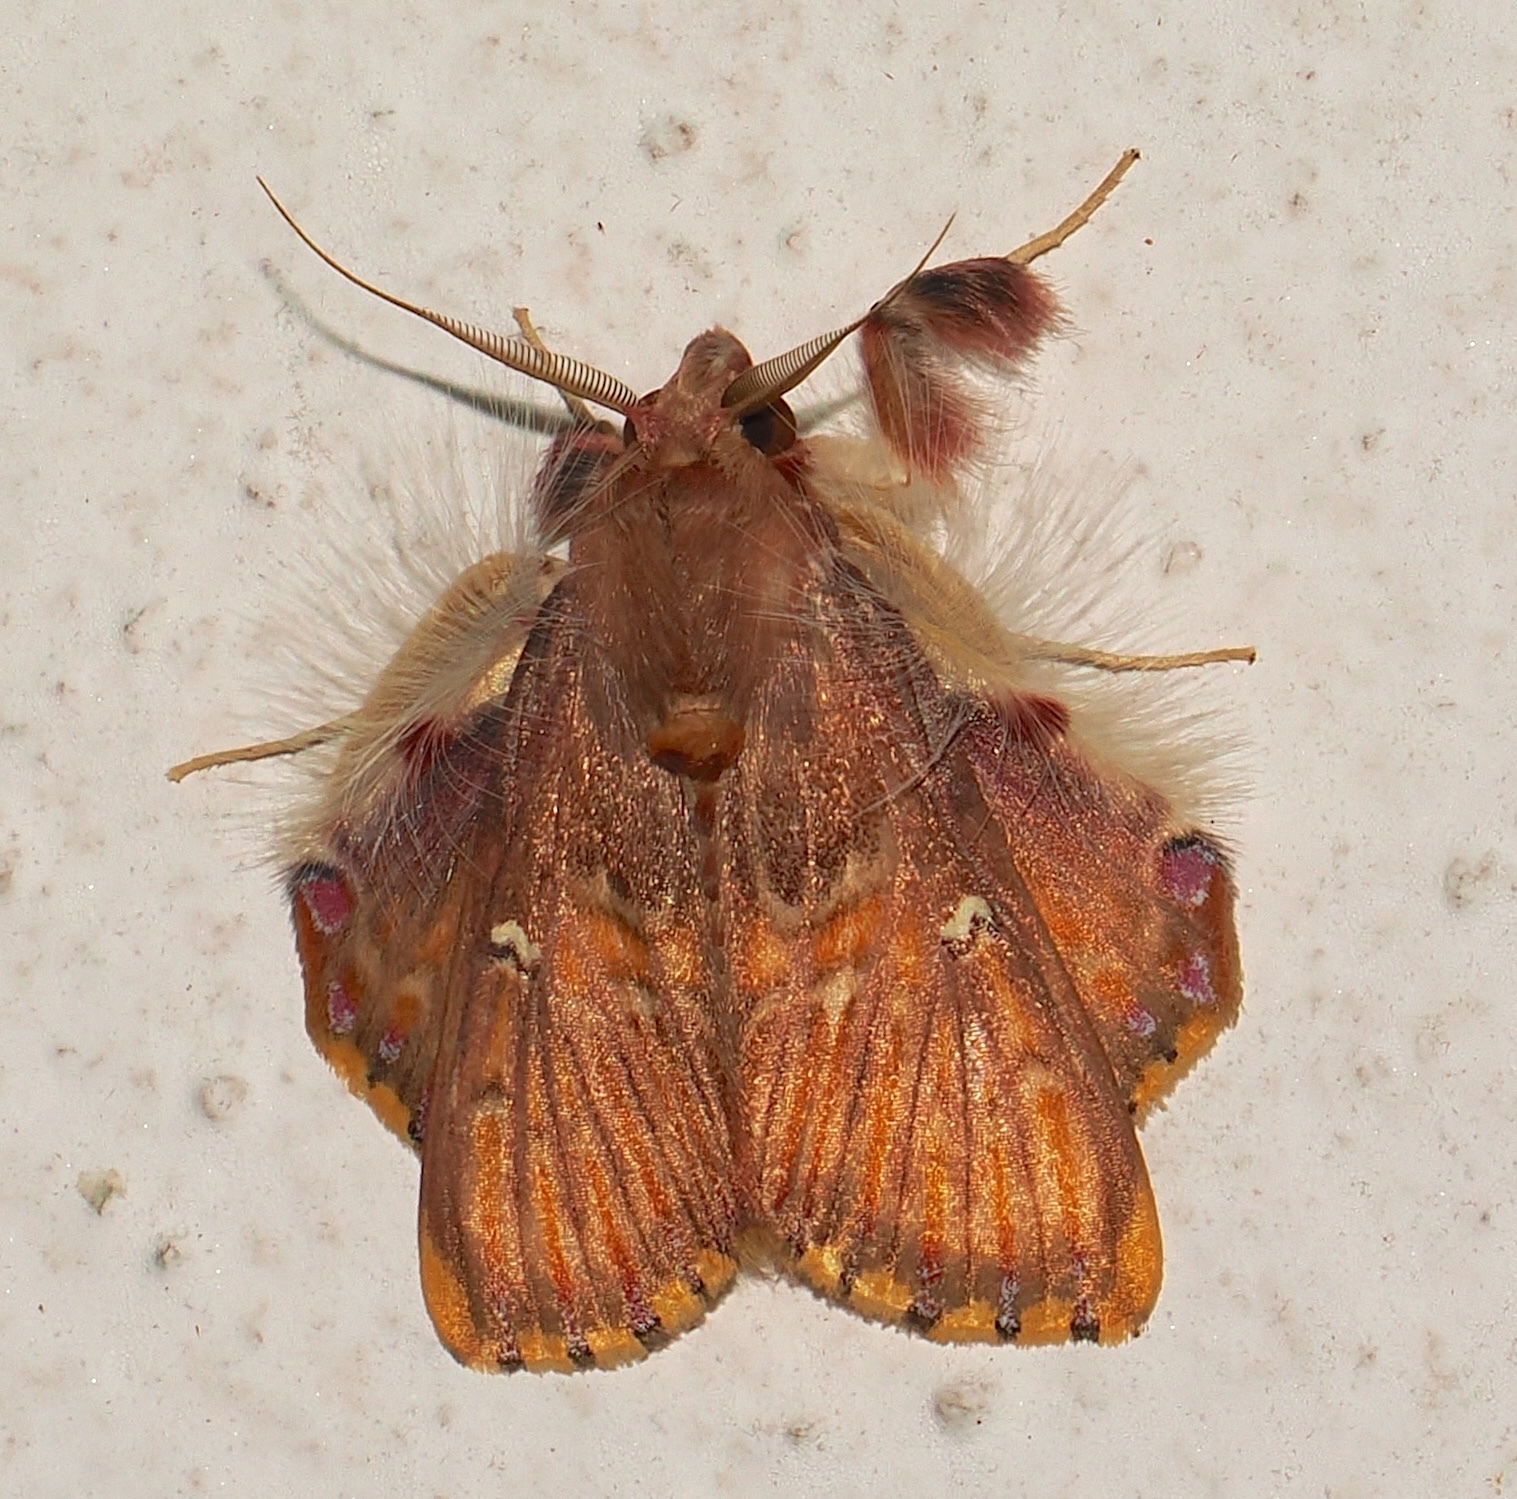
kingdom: Animalia
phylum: Arthropoda
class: Insecta
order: Lepidoptera
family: Erebidae
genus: Sosxetra
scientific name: Sosxetra grata
